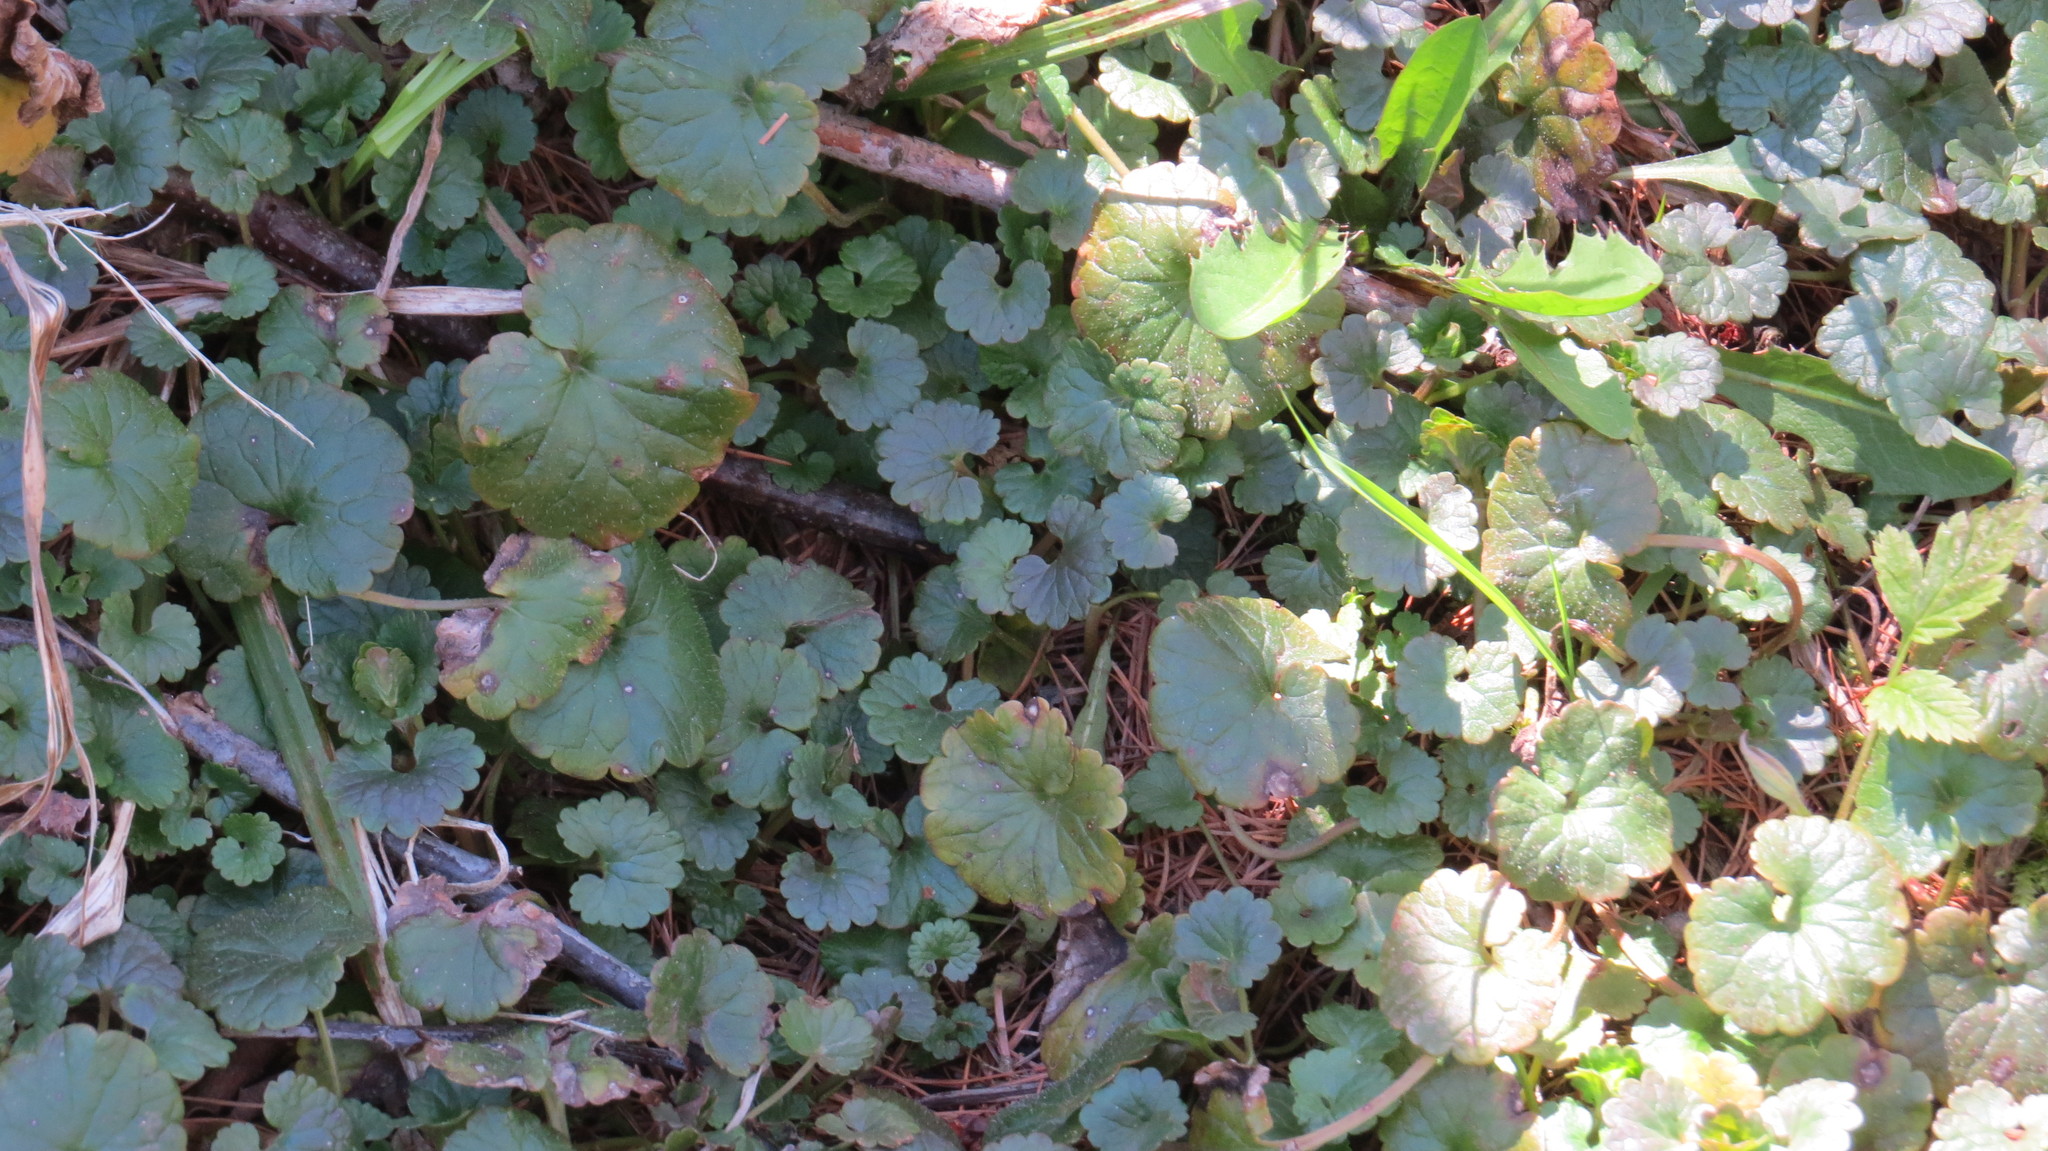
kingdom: Plantae
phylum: Tracheophyta
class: Magnoliopsida
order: Lamiales
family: Lamiaceae
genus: Glechoma
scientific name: Glechoma hederacea
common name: Ground ivy
